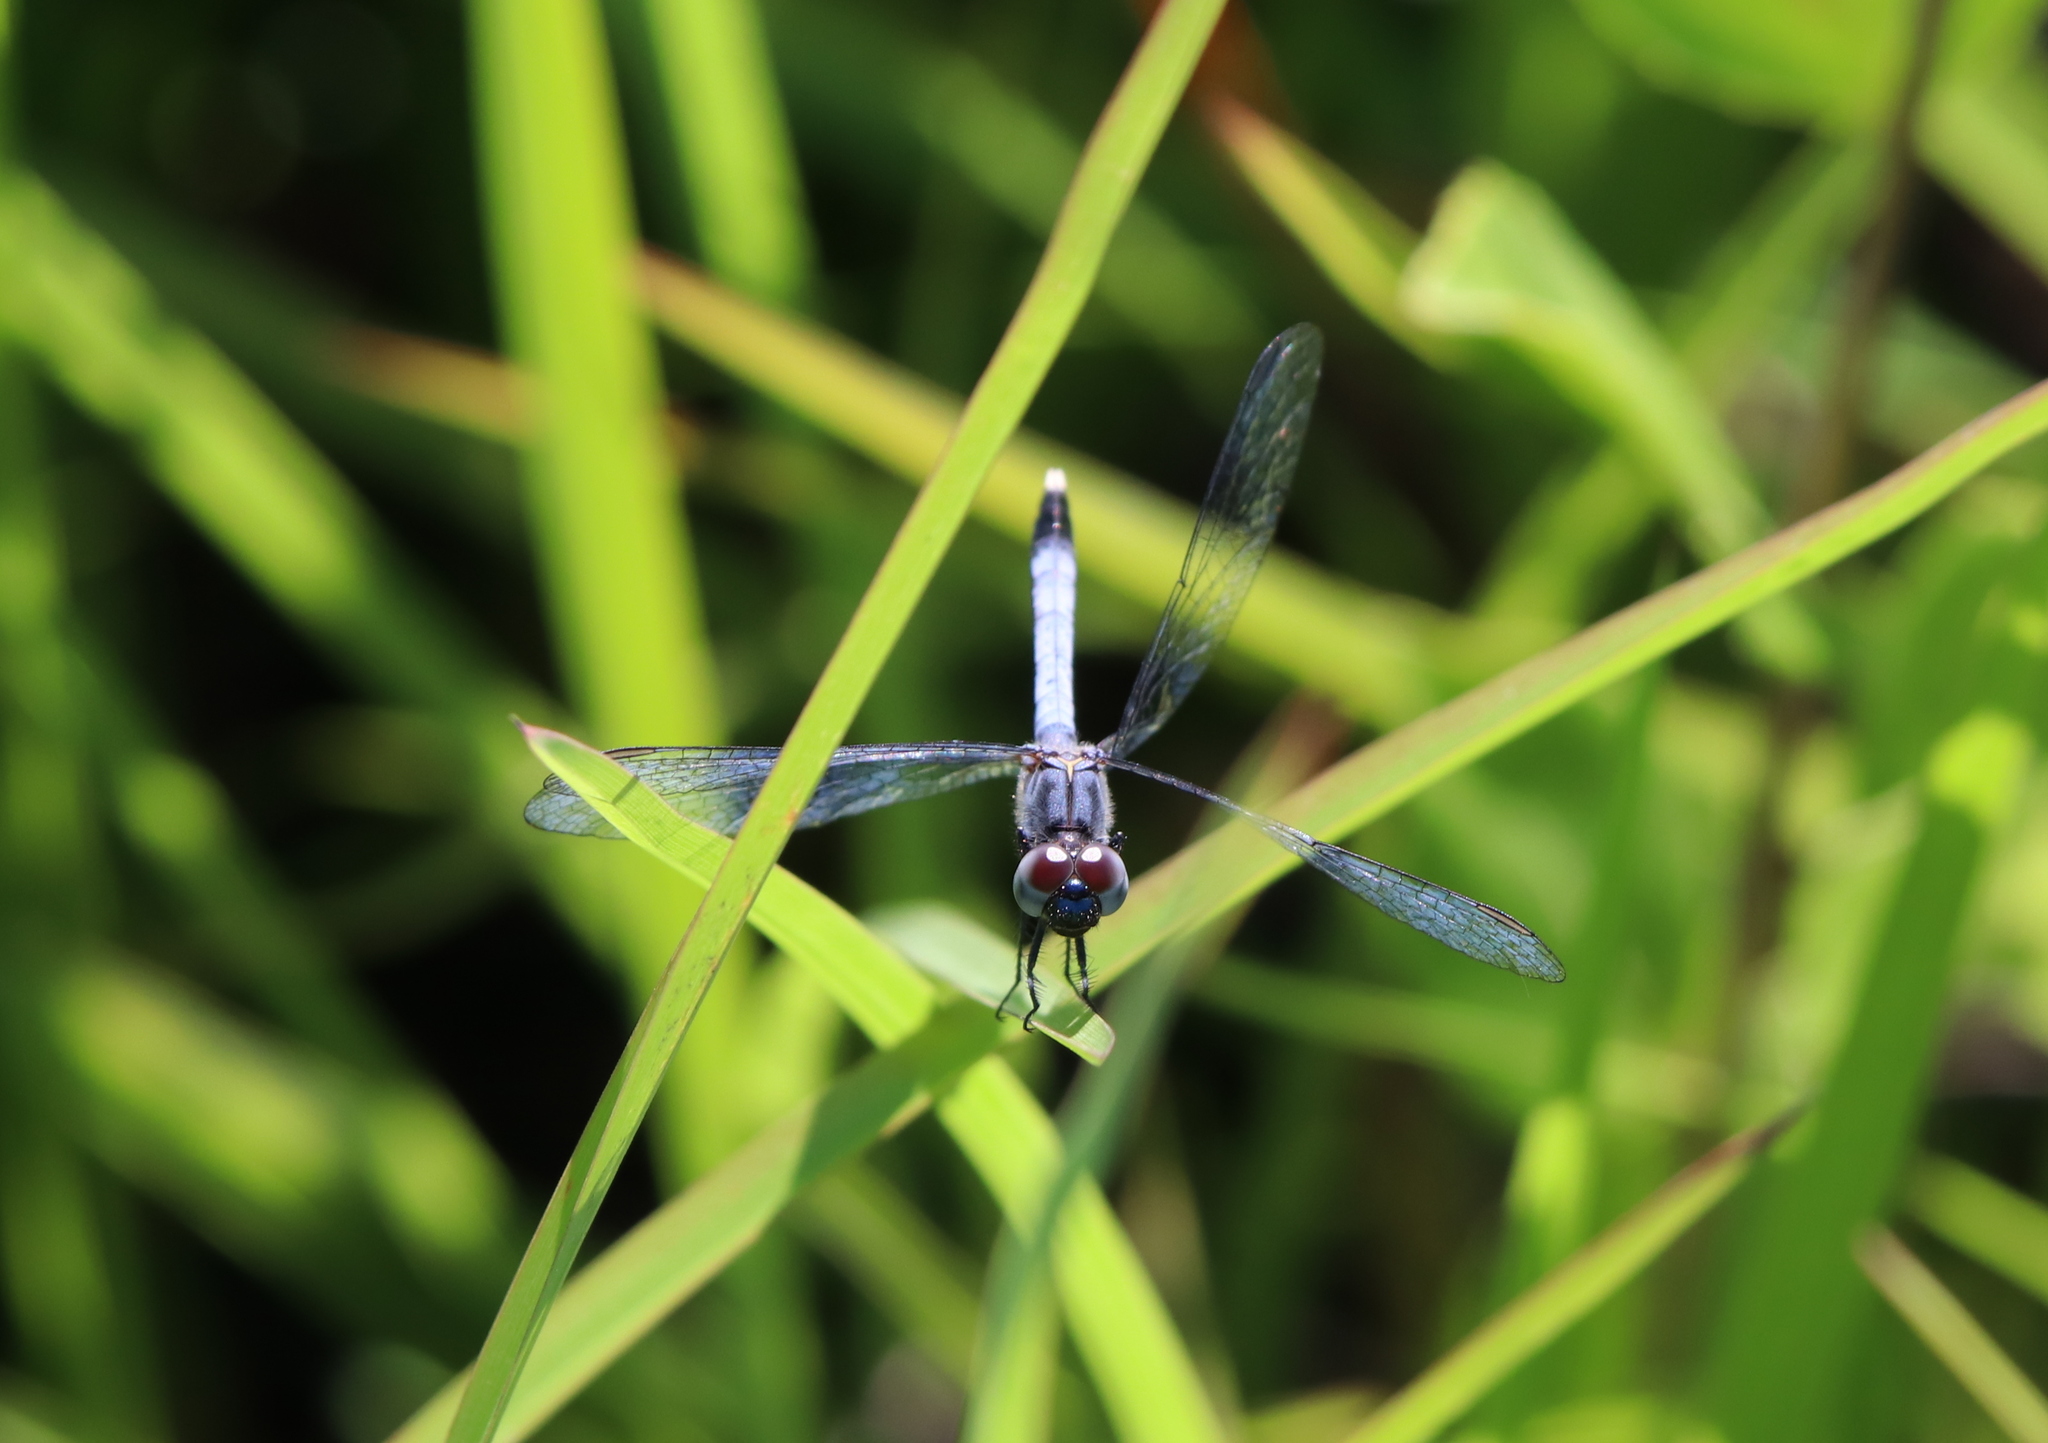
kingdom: Animalia
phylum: Arthropoda
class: Insecta
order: Odonata
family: Libellulidae
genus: Erythrodiplax
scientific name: Erythrodiplax minuscula
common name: Little blue dragonlet
